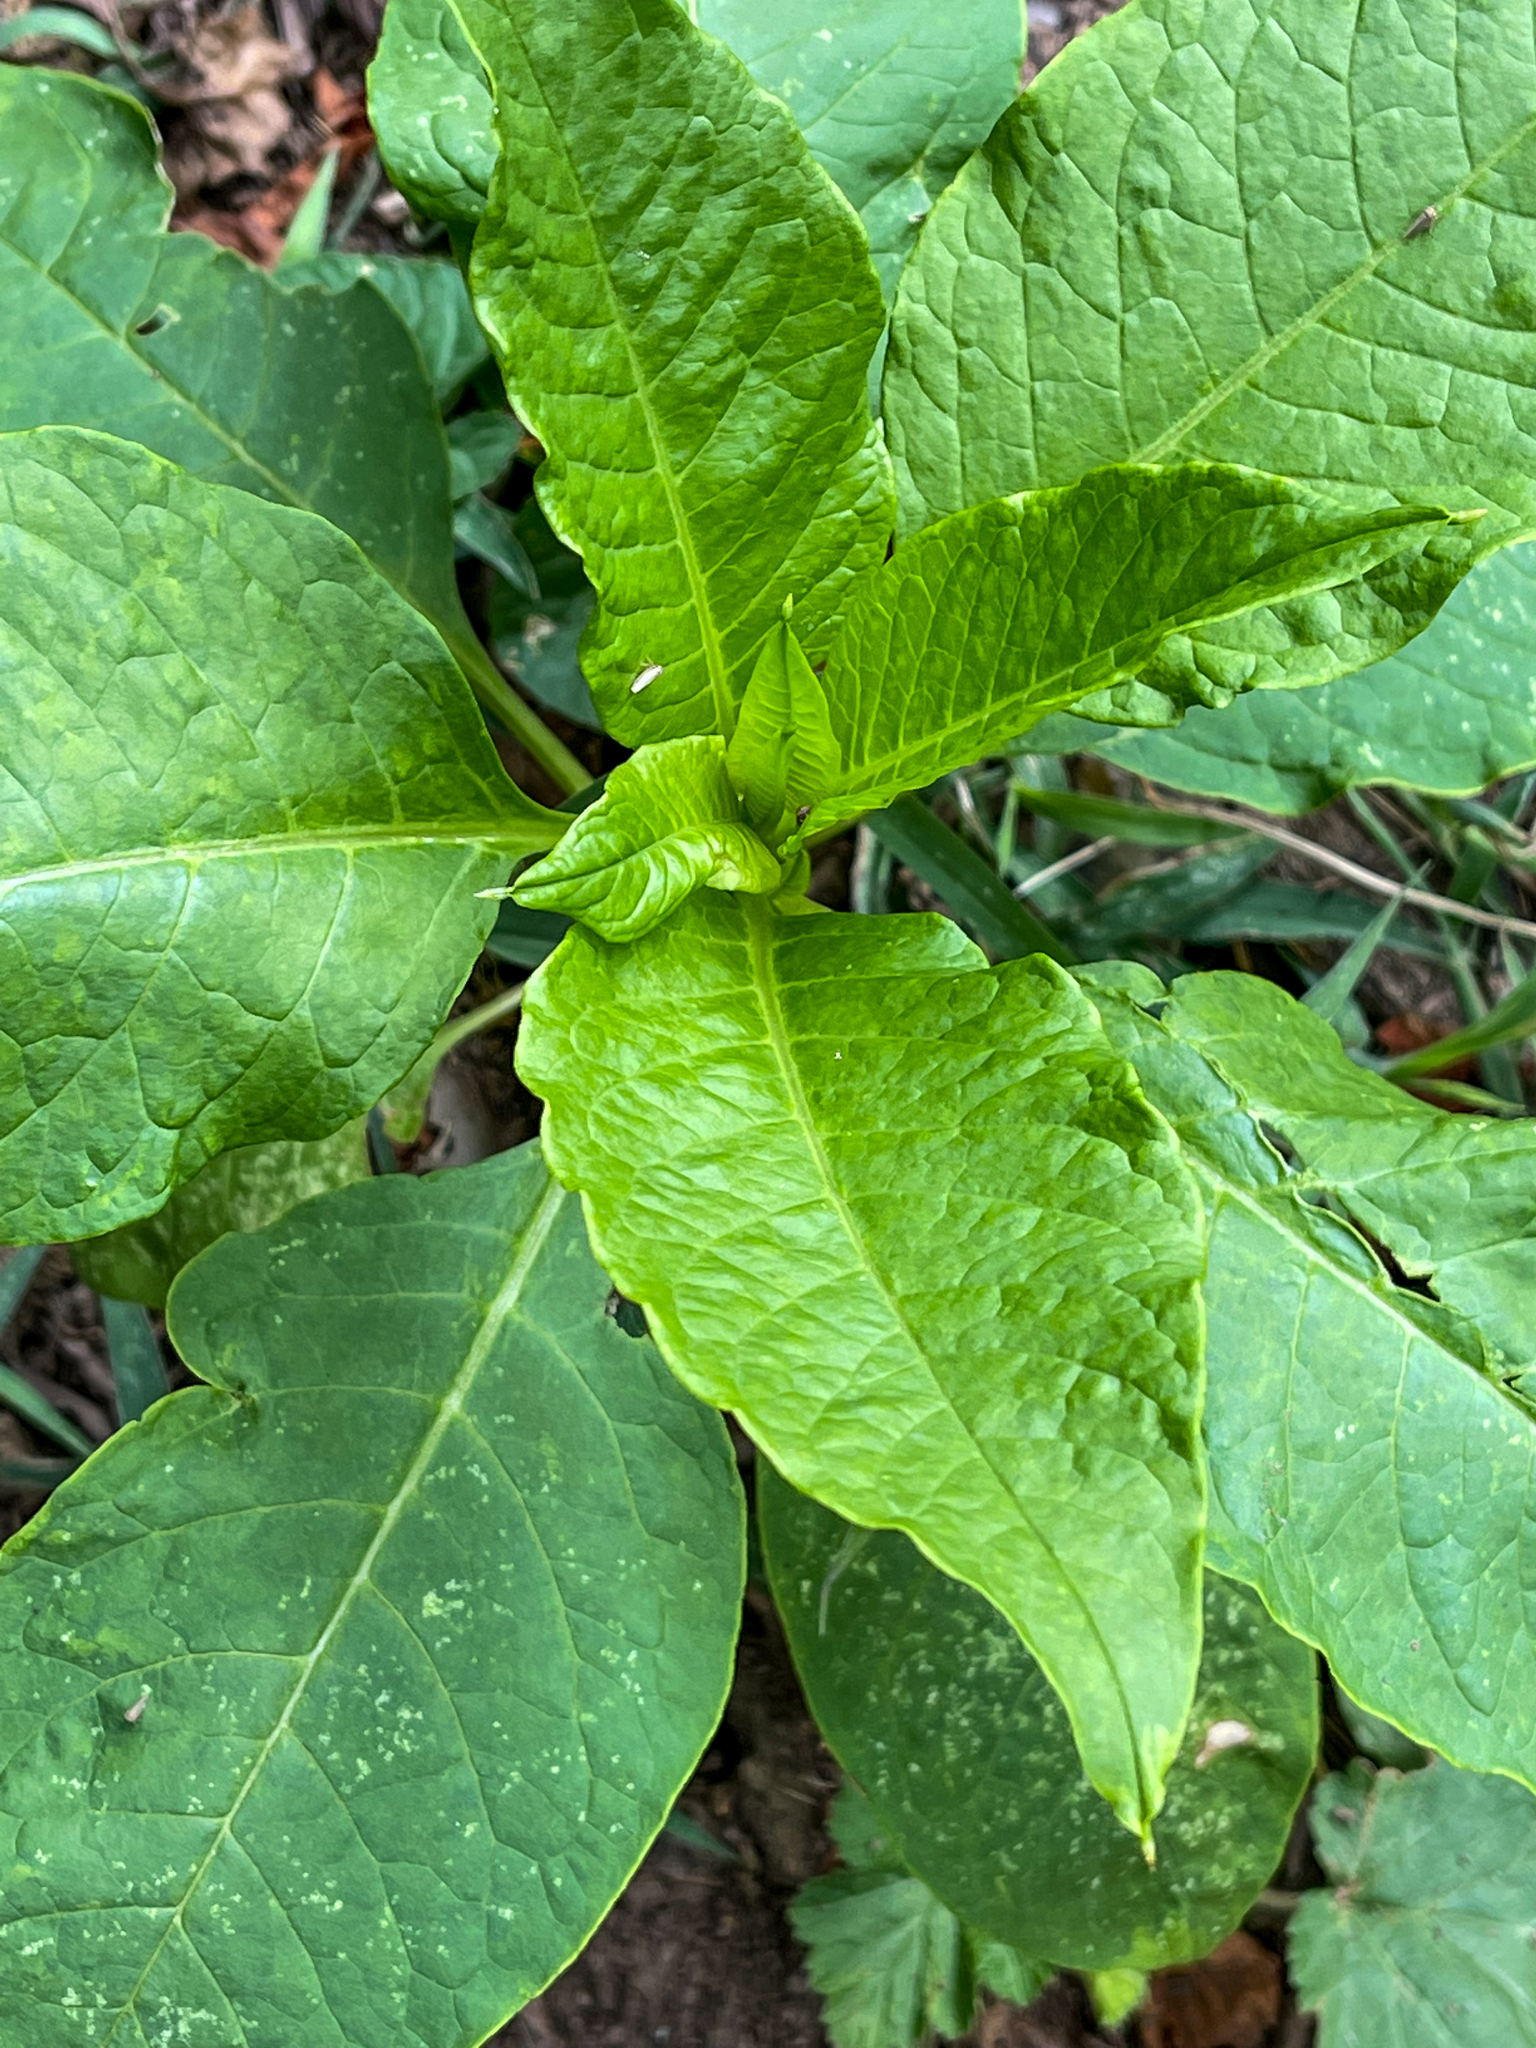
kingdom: Plantae
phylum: Tracheophyta
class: Magnoliopsida
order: Caryophyllales
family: Phytolaccaceae
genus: Phytolacca
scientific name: Phytolacca americana
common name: American pokeweed
